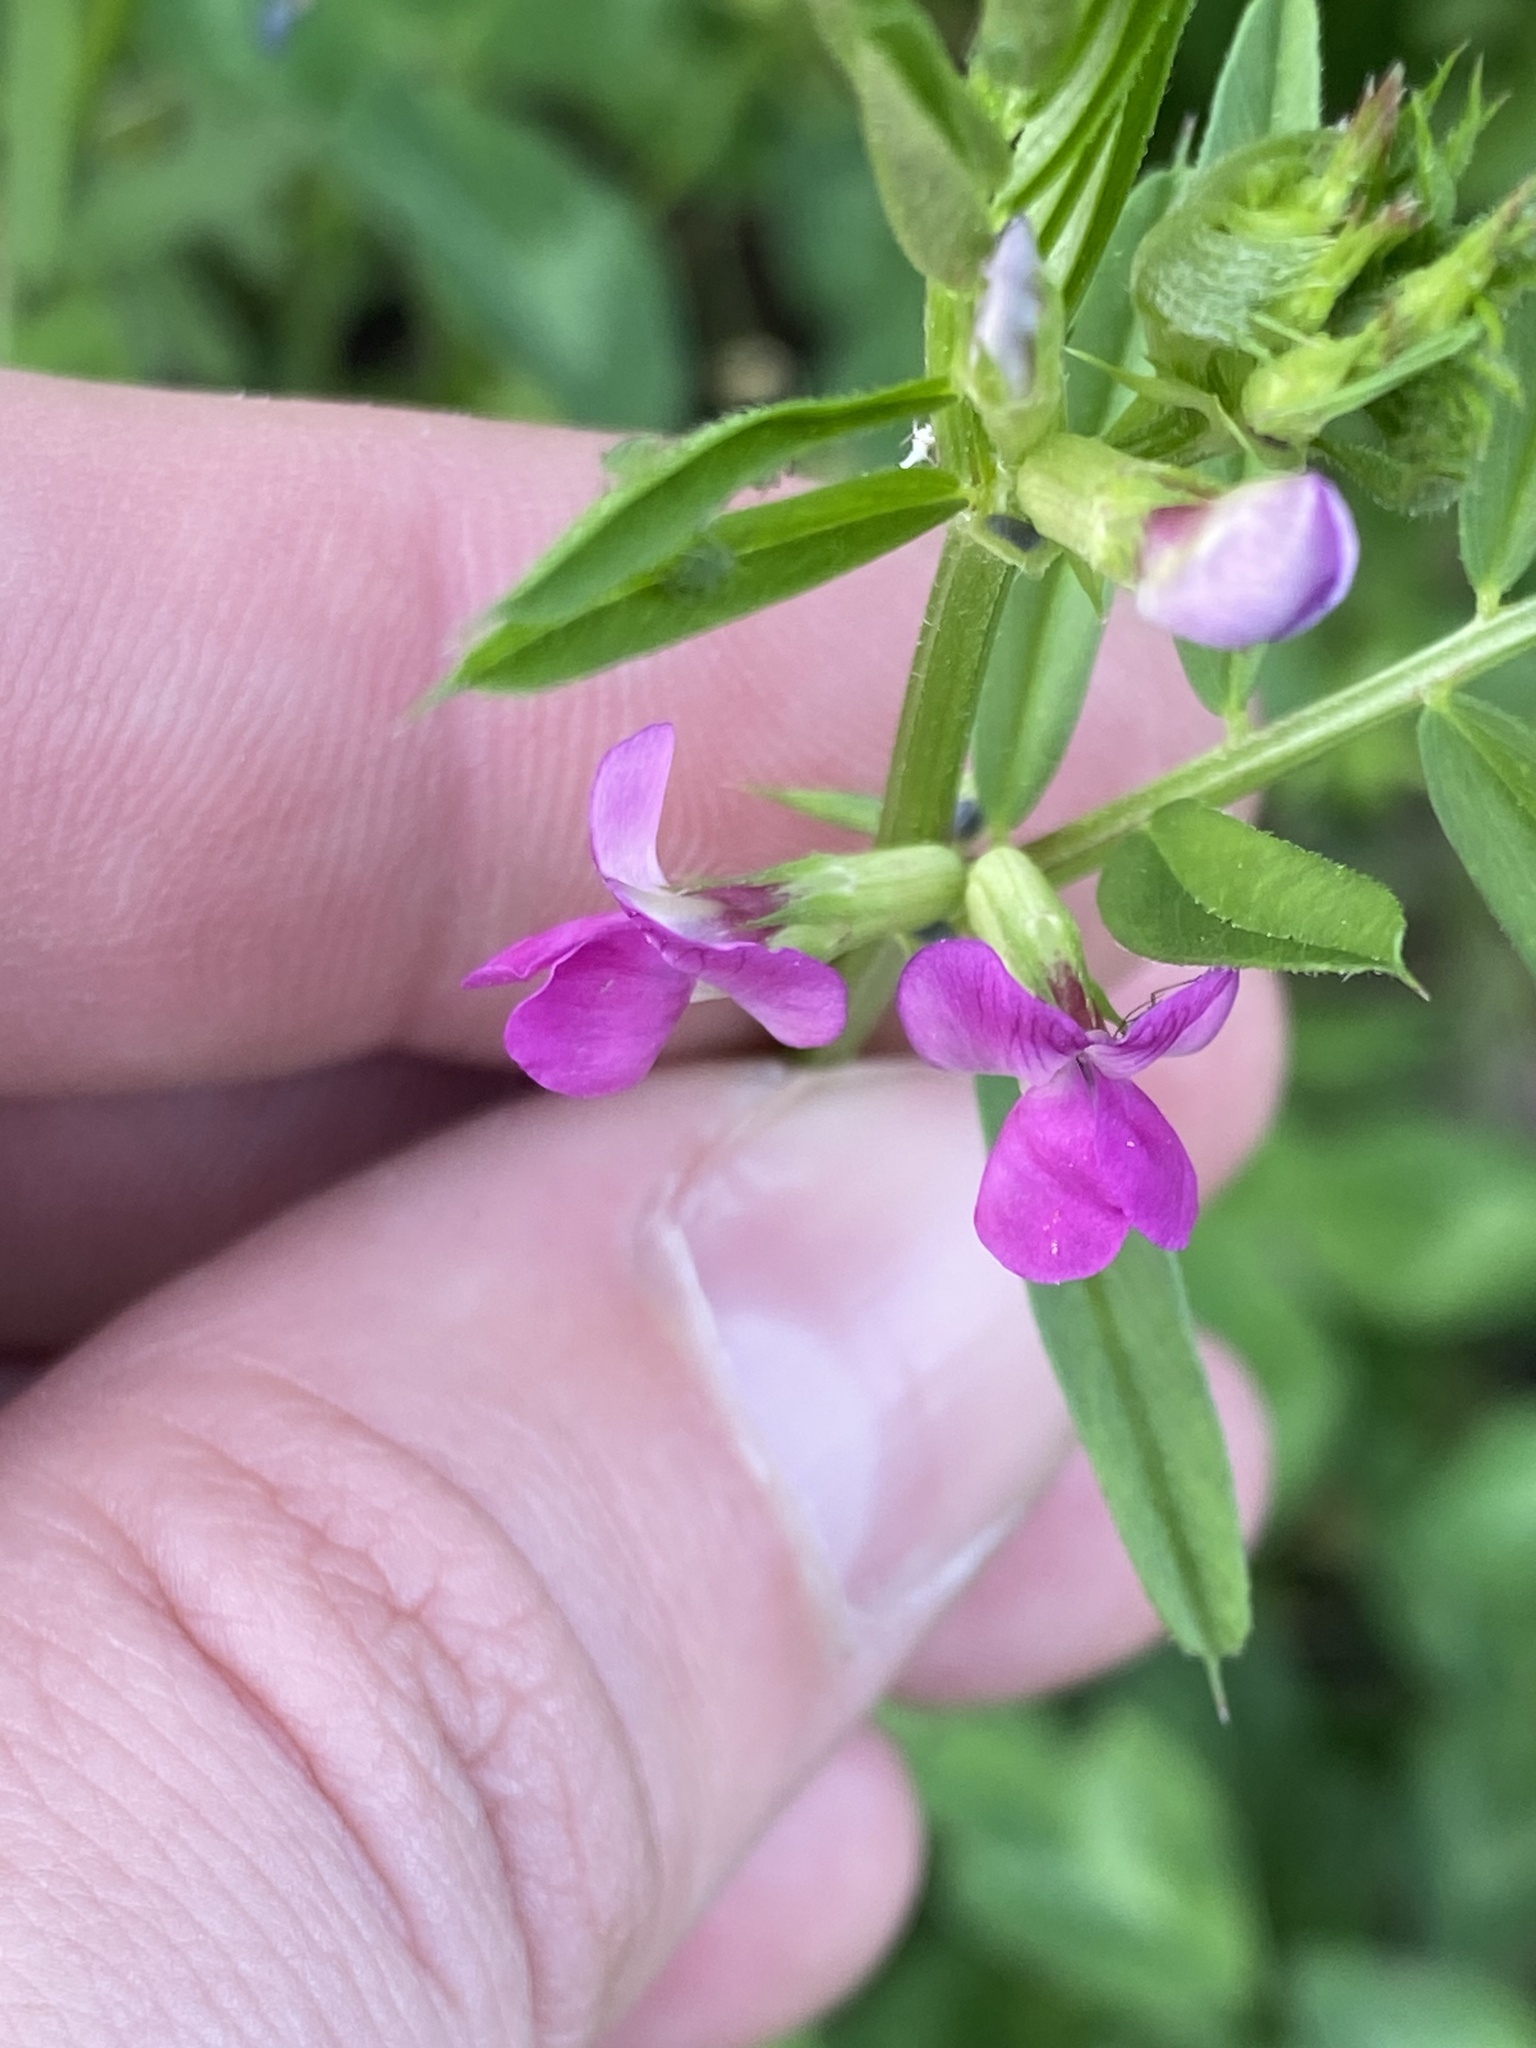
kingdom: Plantae
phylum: Tracheophyta
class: Magnoliopsida
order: Fabales
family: Fabaceae
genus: Vicia
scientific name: Vicia sativa
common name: Garden vetch
